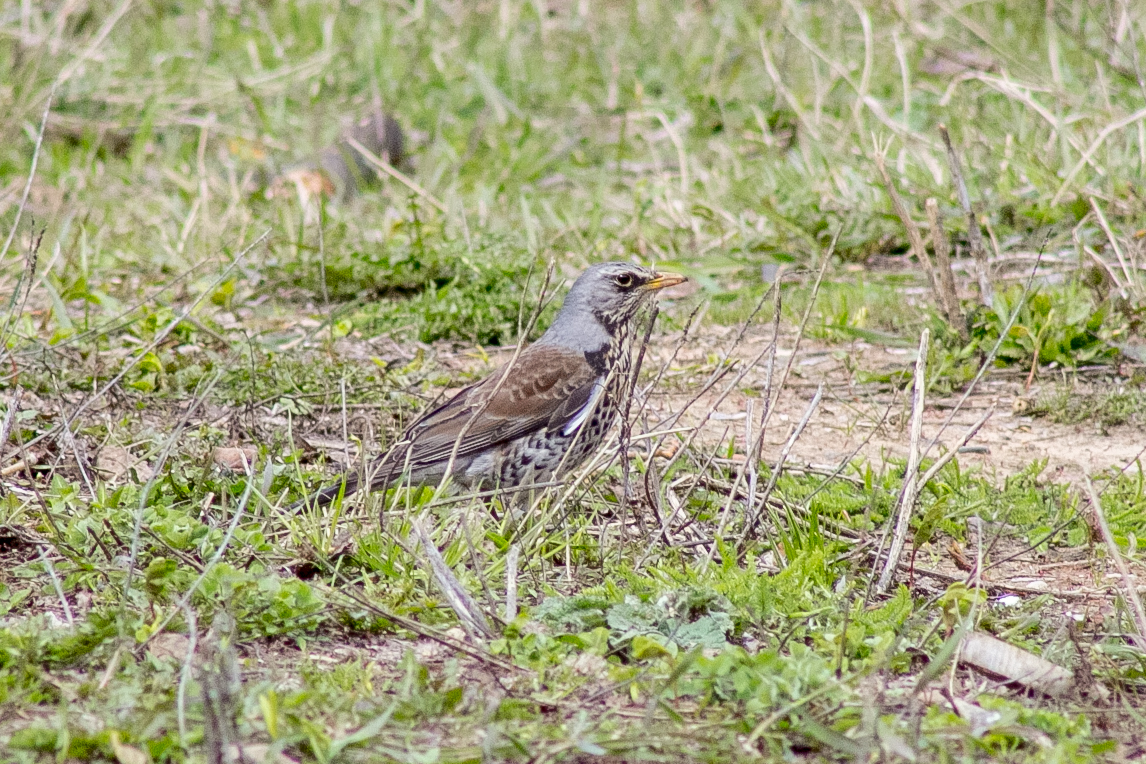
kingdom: Animalia
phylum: Chordata
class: Aves
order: Passeriformes
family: Turdidae
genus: Turdus
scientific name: Turdus pilaris
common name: Fieldfare
